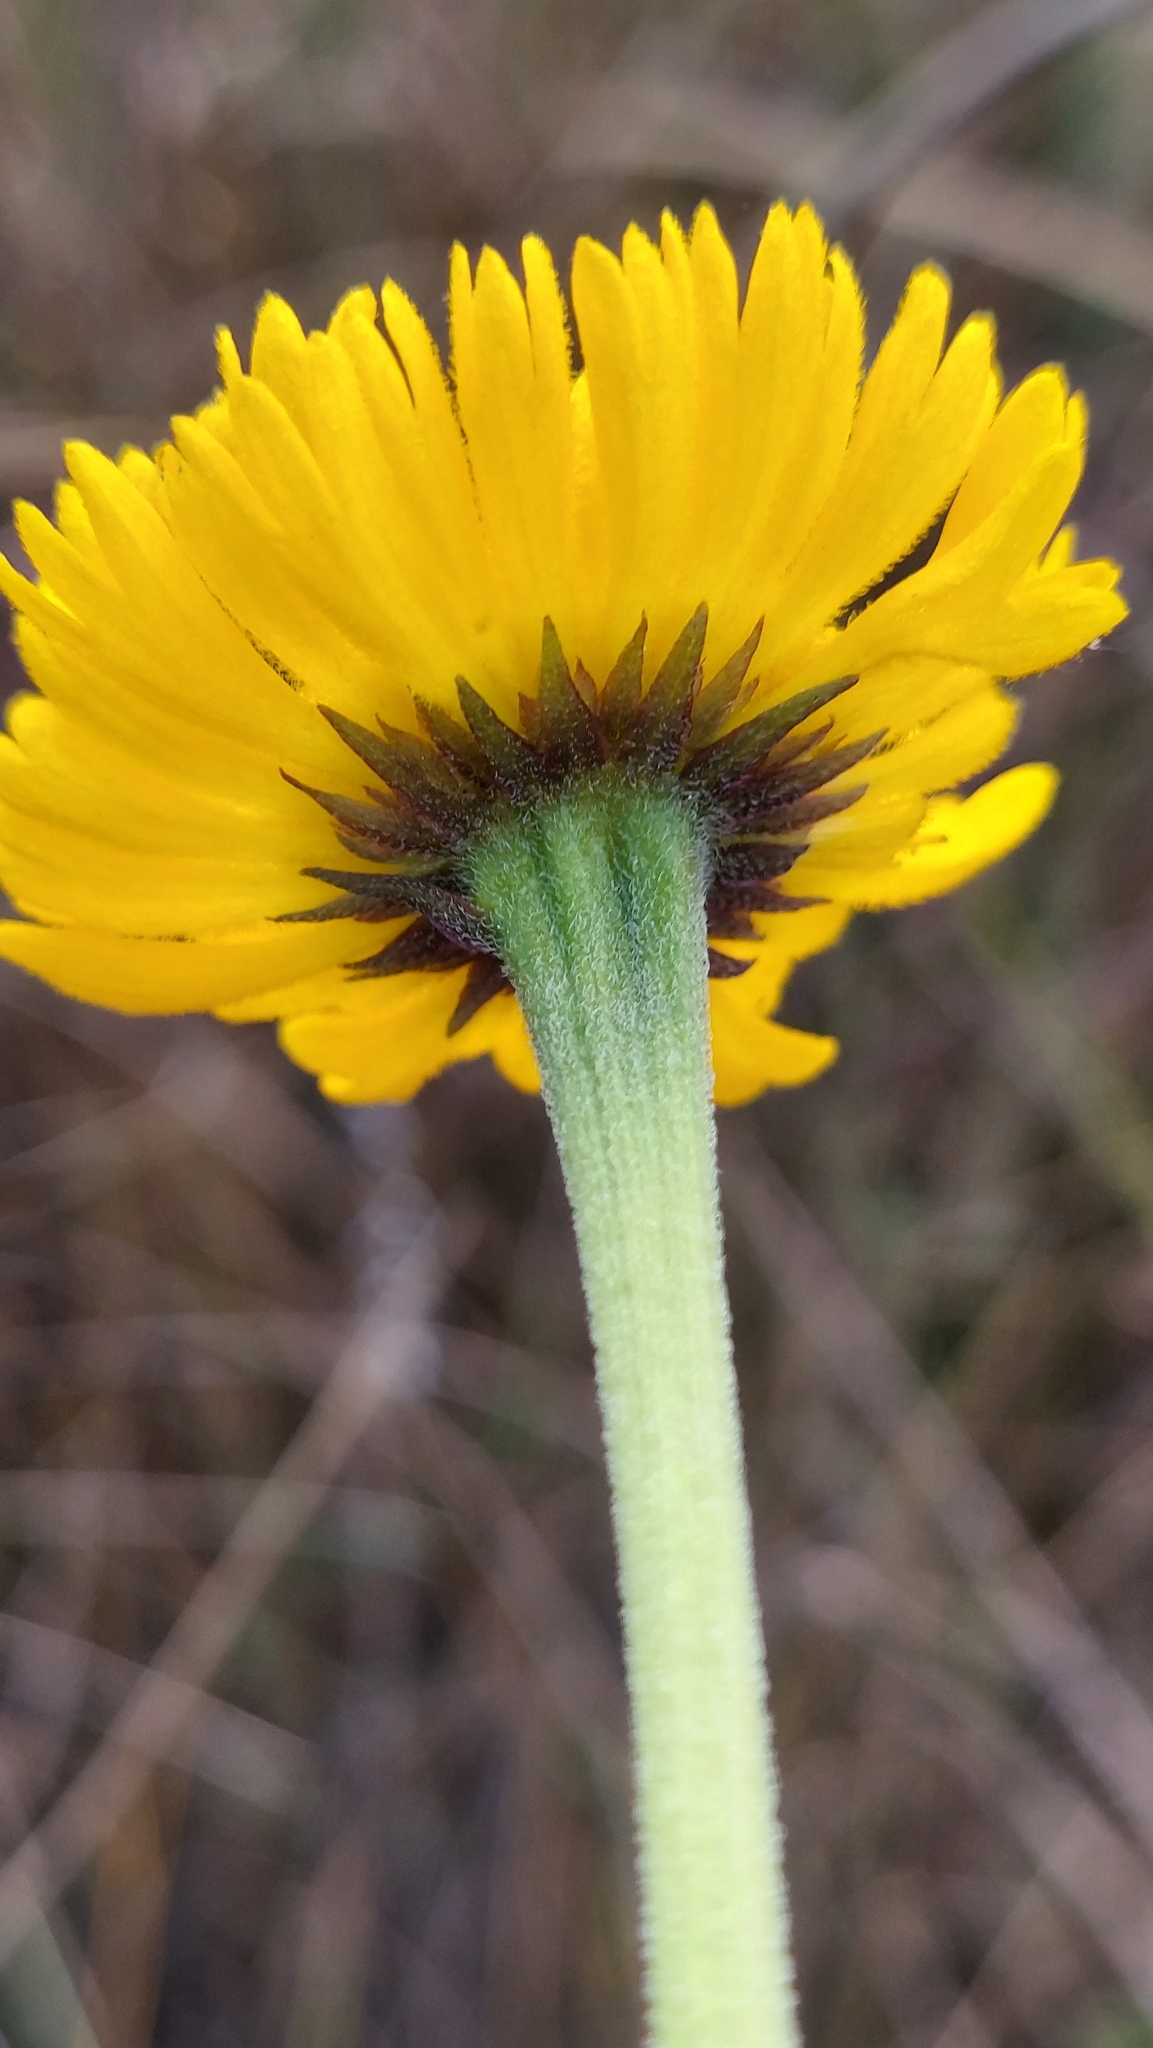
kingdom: Plantae
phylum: Tracheophyta
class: Magnoliopsida
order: Asterales
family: Asteraceae
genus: Helenium
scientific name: Helenium pinnatifidum
